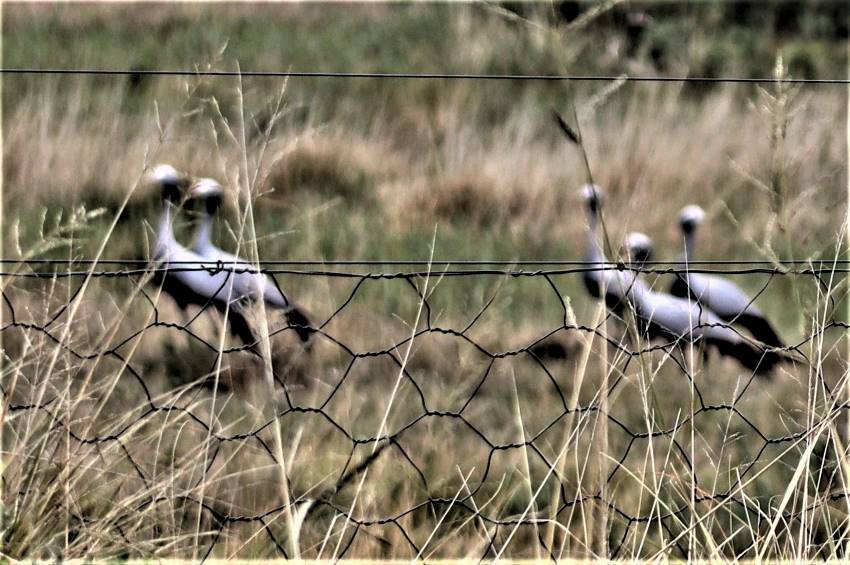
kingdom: Animalia
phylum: Chordata
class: Aves
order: Gruiformes
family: Gruidae
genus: Anthropoides
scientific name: Anthropoides paradiseus
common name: Blue crane
